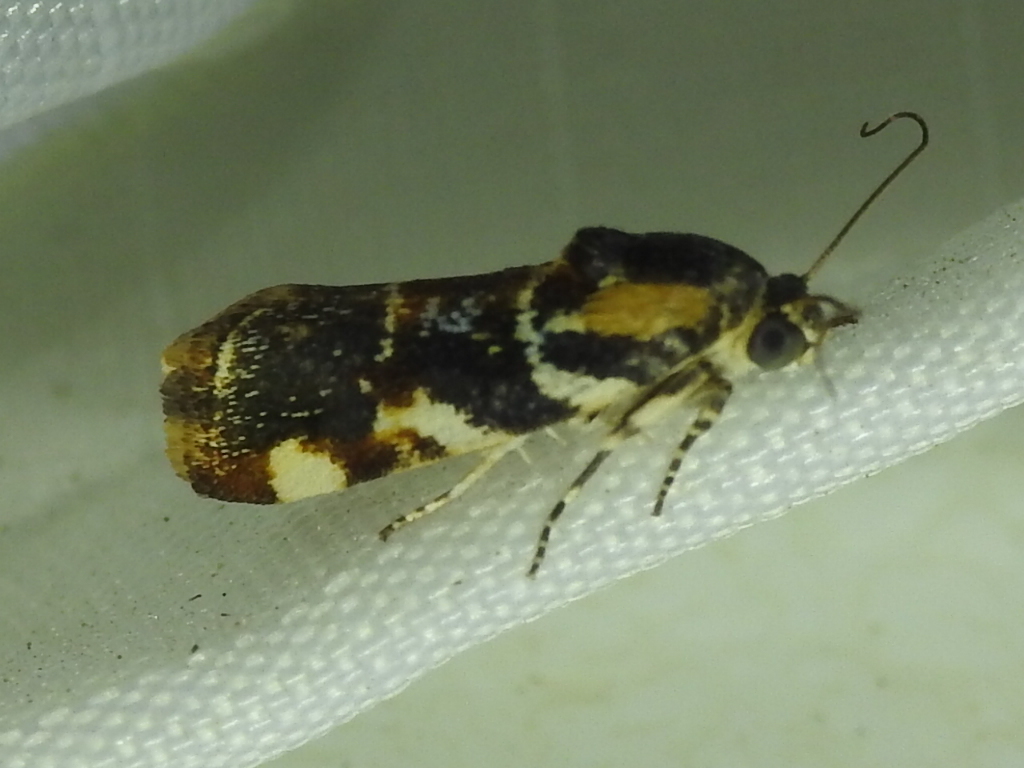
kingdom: Animalia
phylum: Arthropoda
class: Insecta
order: Lepidoptera
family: Noctuidae
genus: Spragueia
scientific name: Spragueia jaguaralis
